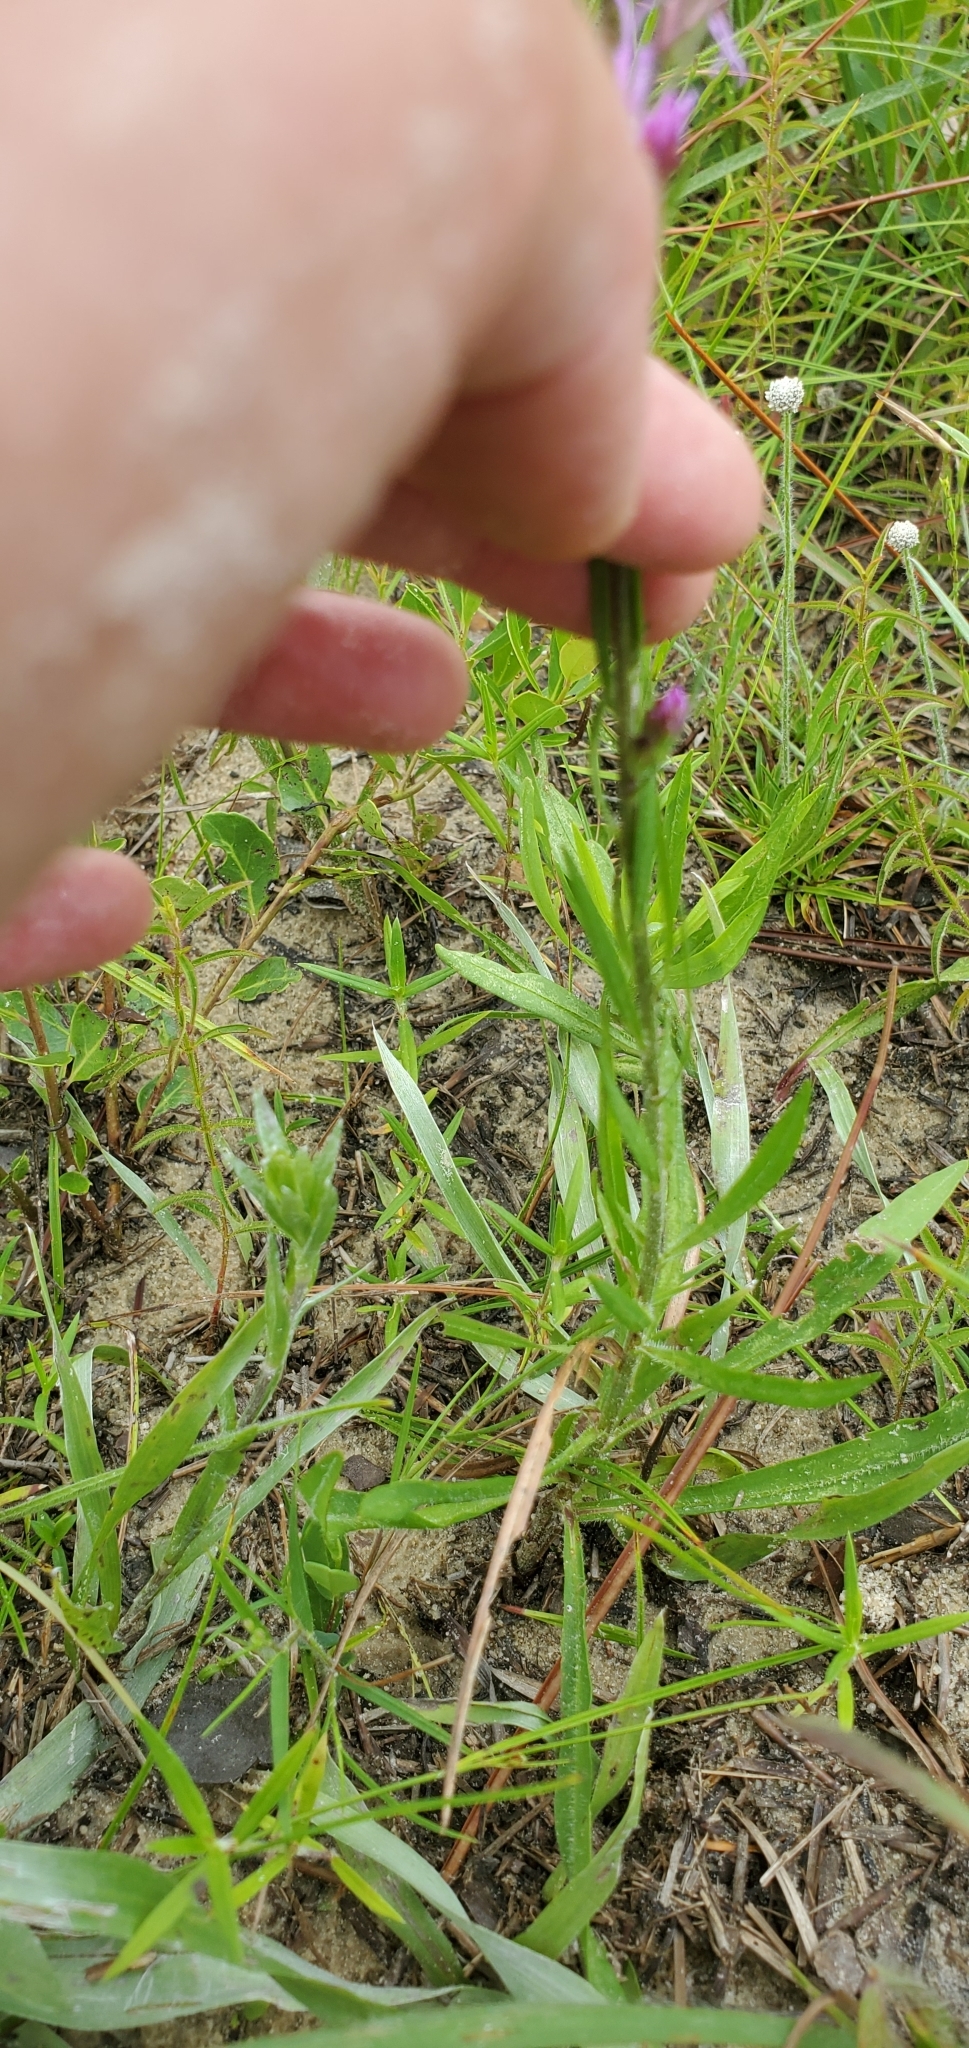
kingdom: Plantae
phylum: Tracheophyta
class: Magnoliopsida
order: Asterales
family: Asteraceae
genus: Liatris
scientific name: Liatris gracilis
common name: Slender gayfeather
